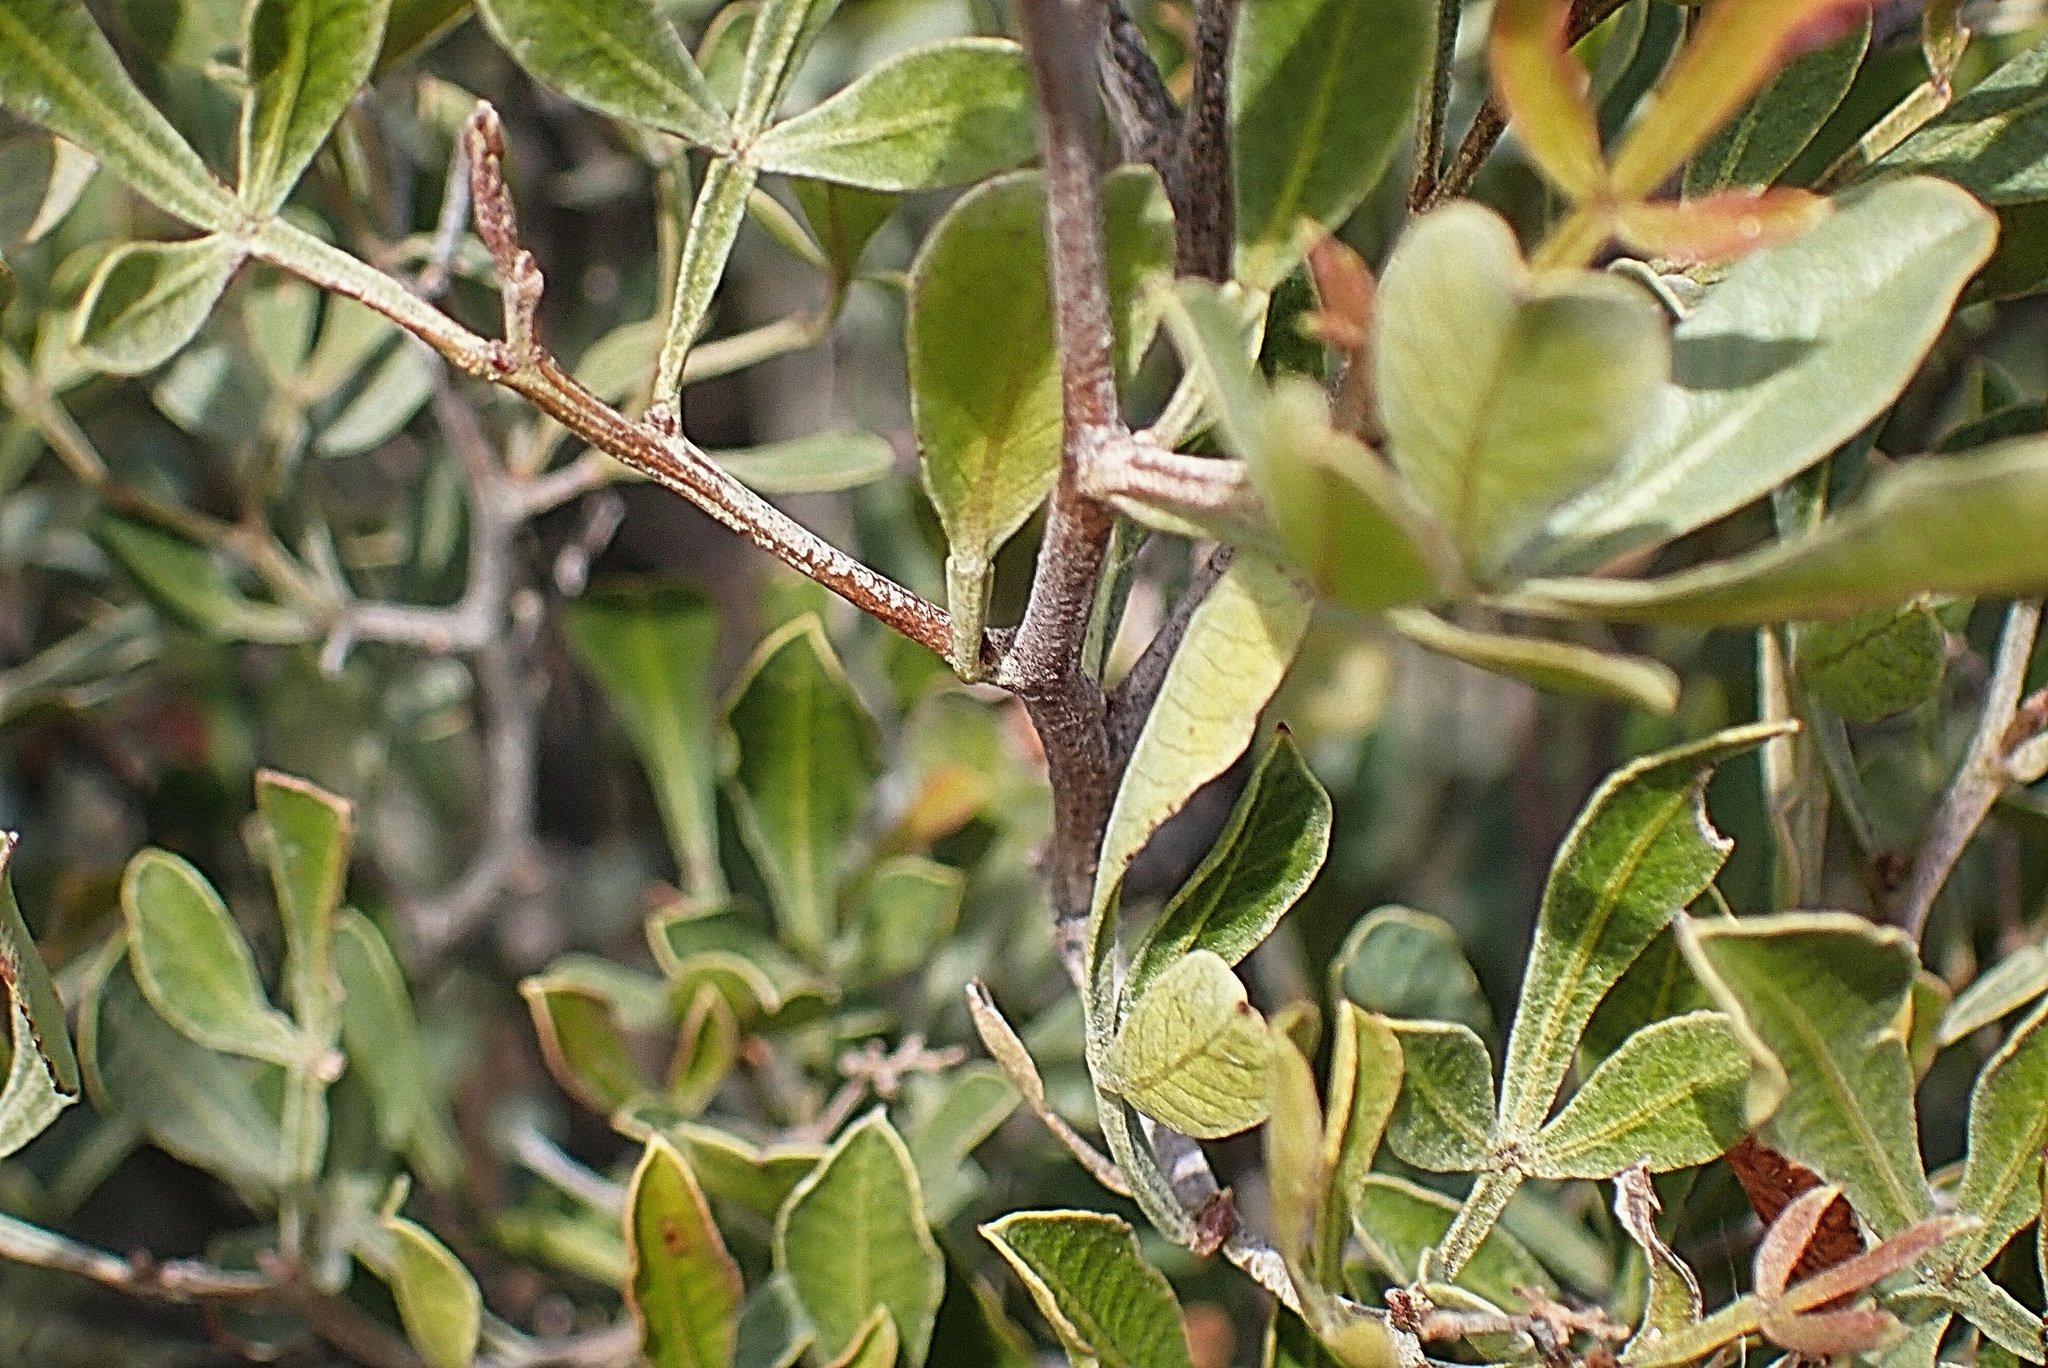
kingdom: Plantae
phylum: Tracheophyta
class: Magnoliopsida
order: Sapindales
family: Anacardiaceae
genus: Searsia
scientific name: Searsia pallens
